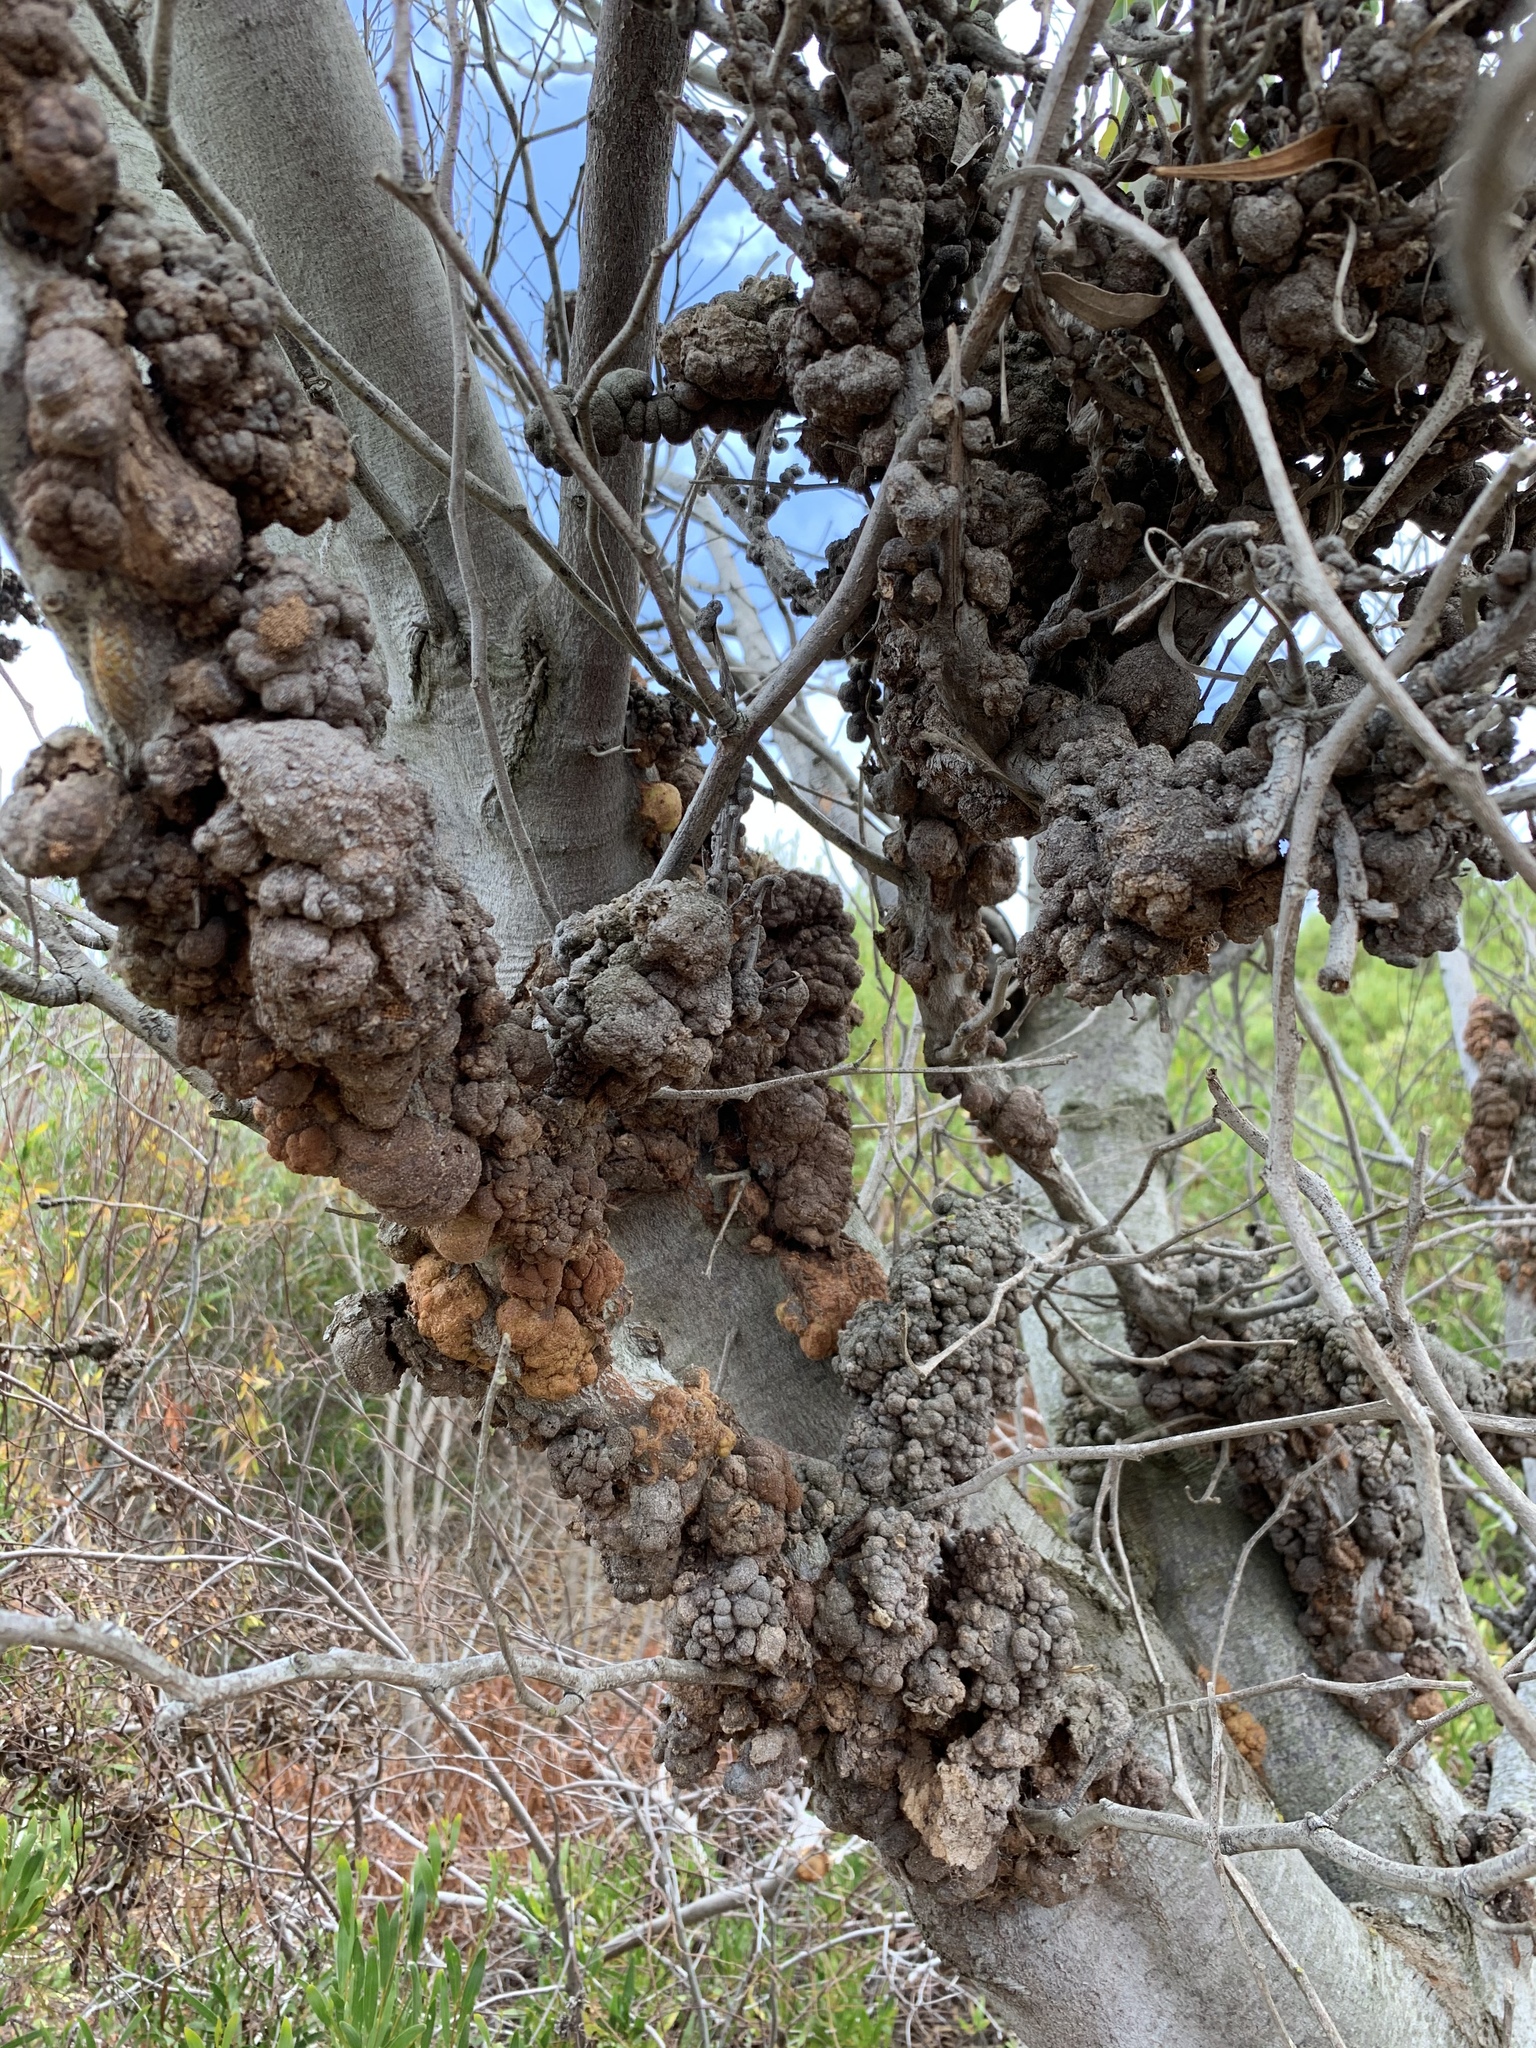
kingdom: Fungi
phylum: Basidiomycota
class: Pucciniomycetes
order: Pucciniales
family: Uromycladiaceae
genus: Uromycladium
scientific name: Uromycladium morrisii
